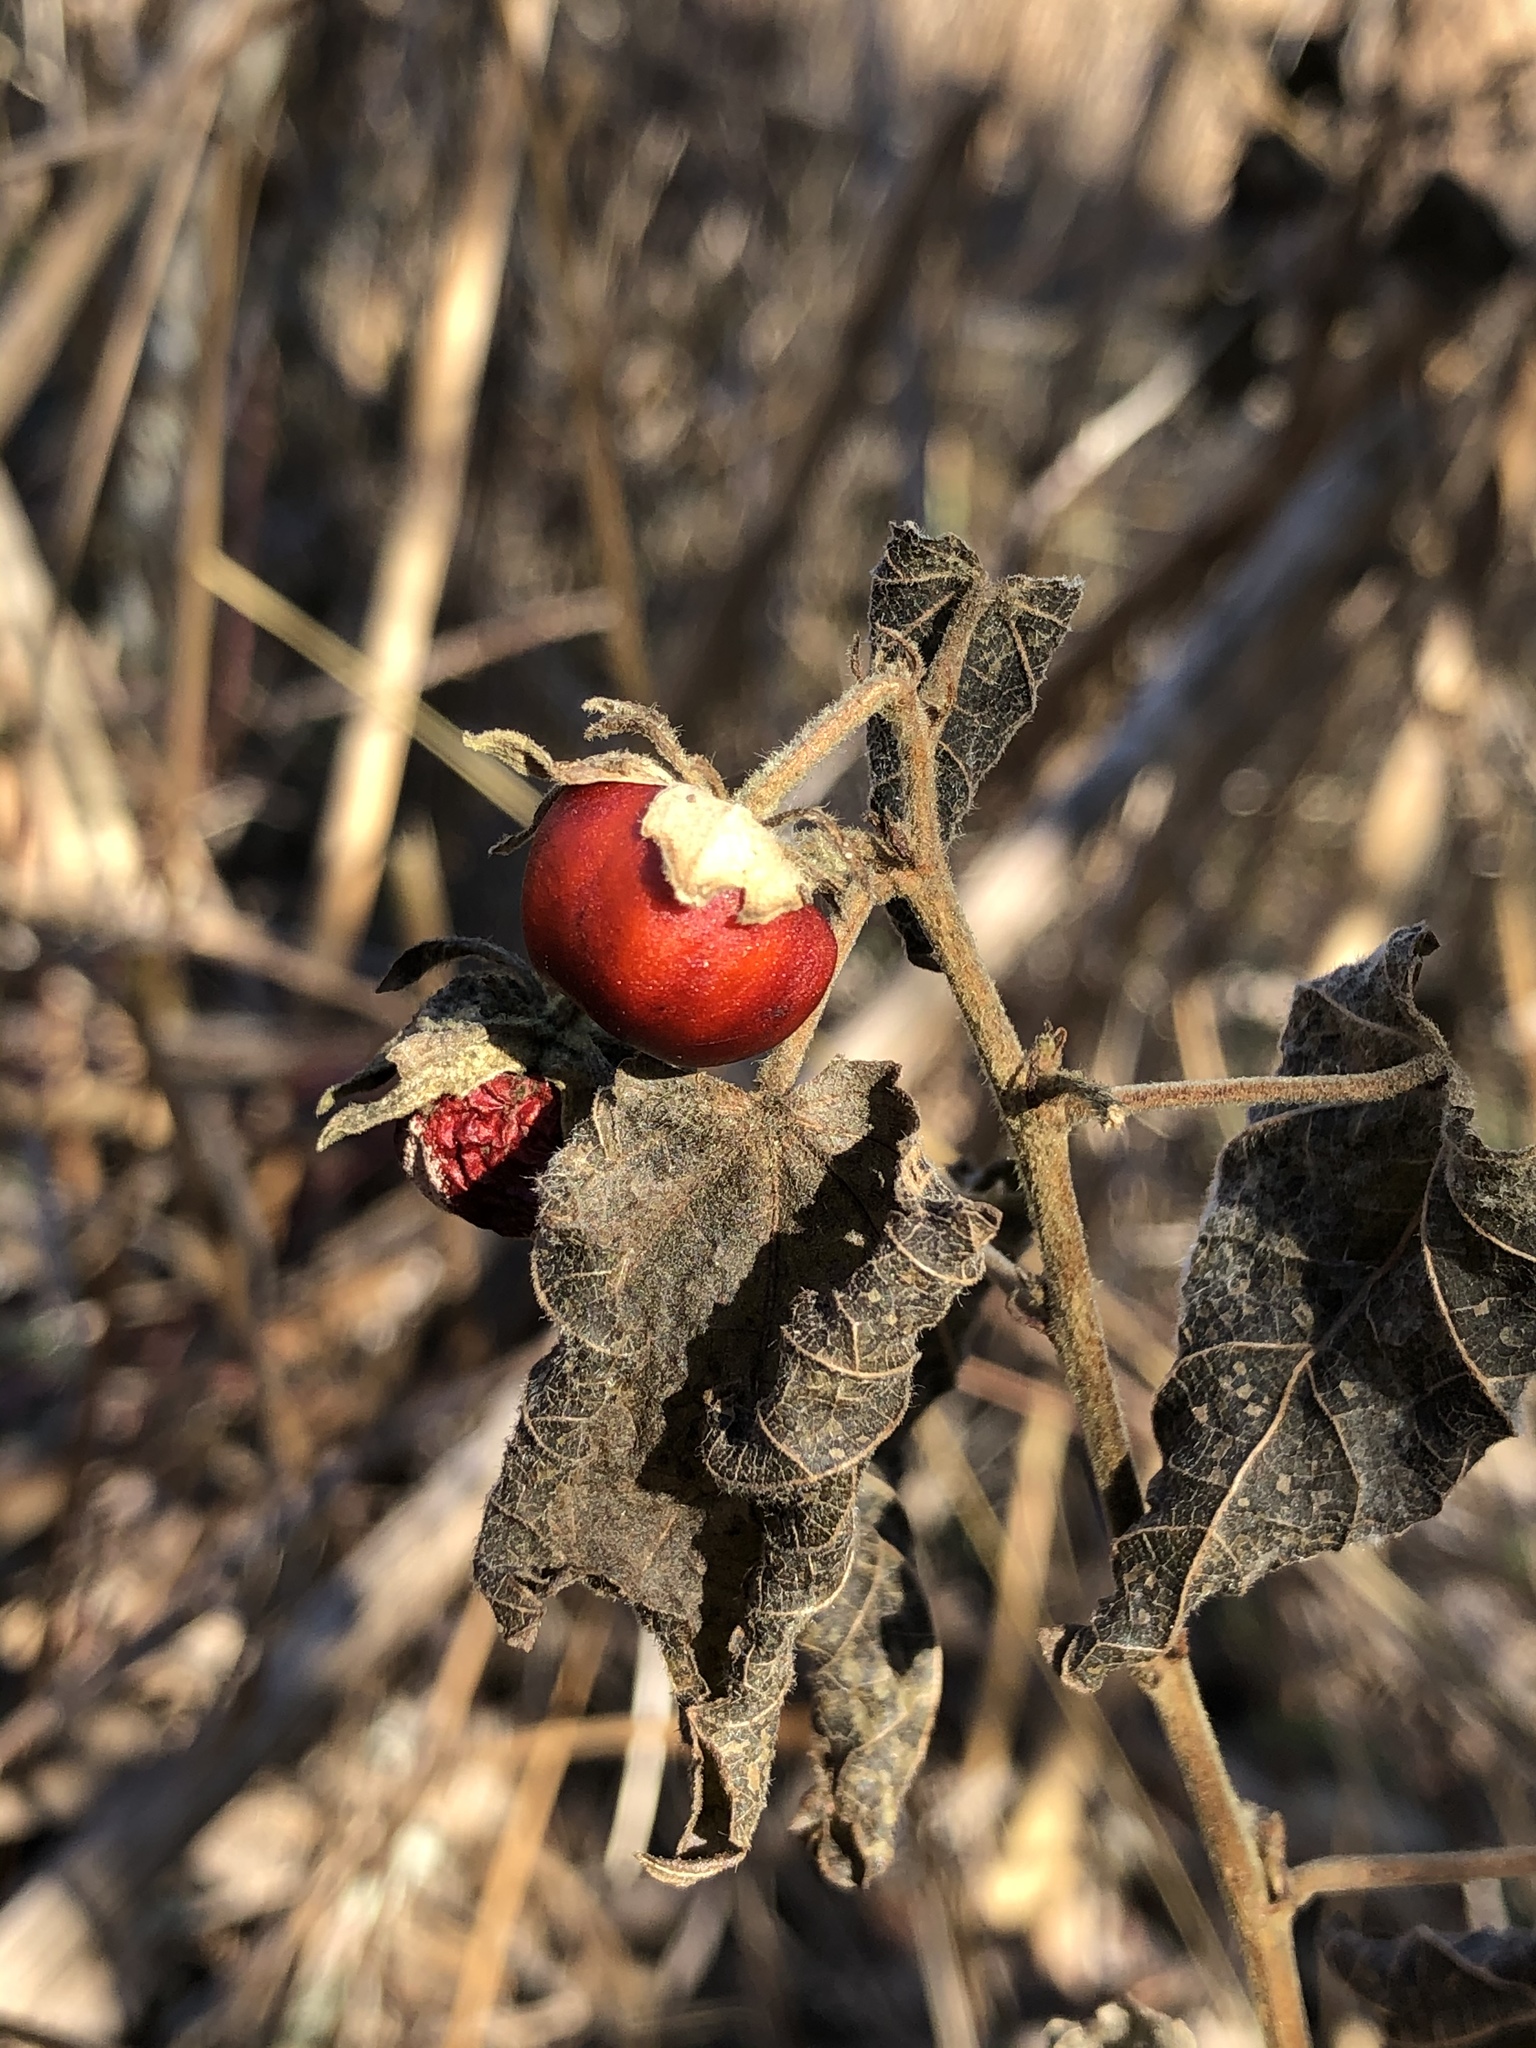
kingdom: Plantae
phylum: Tracheophyta
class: Magnoliopsida
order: Malvales
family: Malvaceae
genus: Malvaviscus
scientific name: Malvaviscus arboreus
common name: Wax mallow
